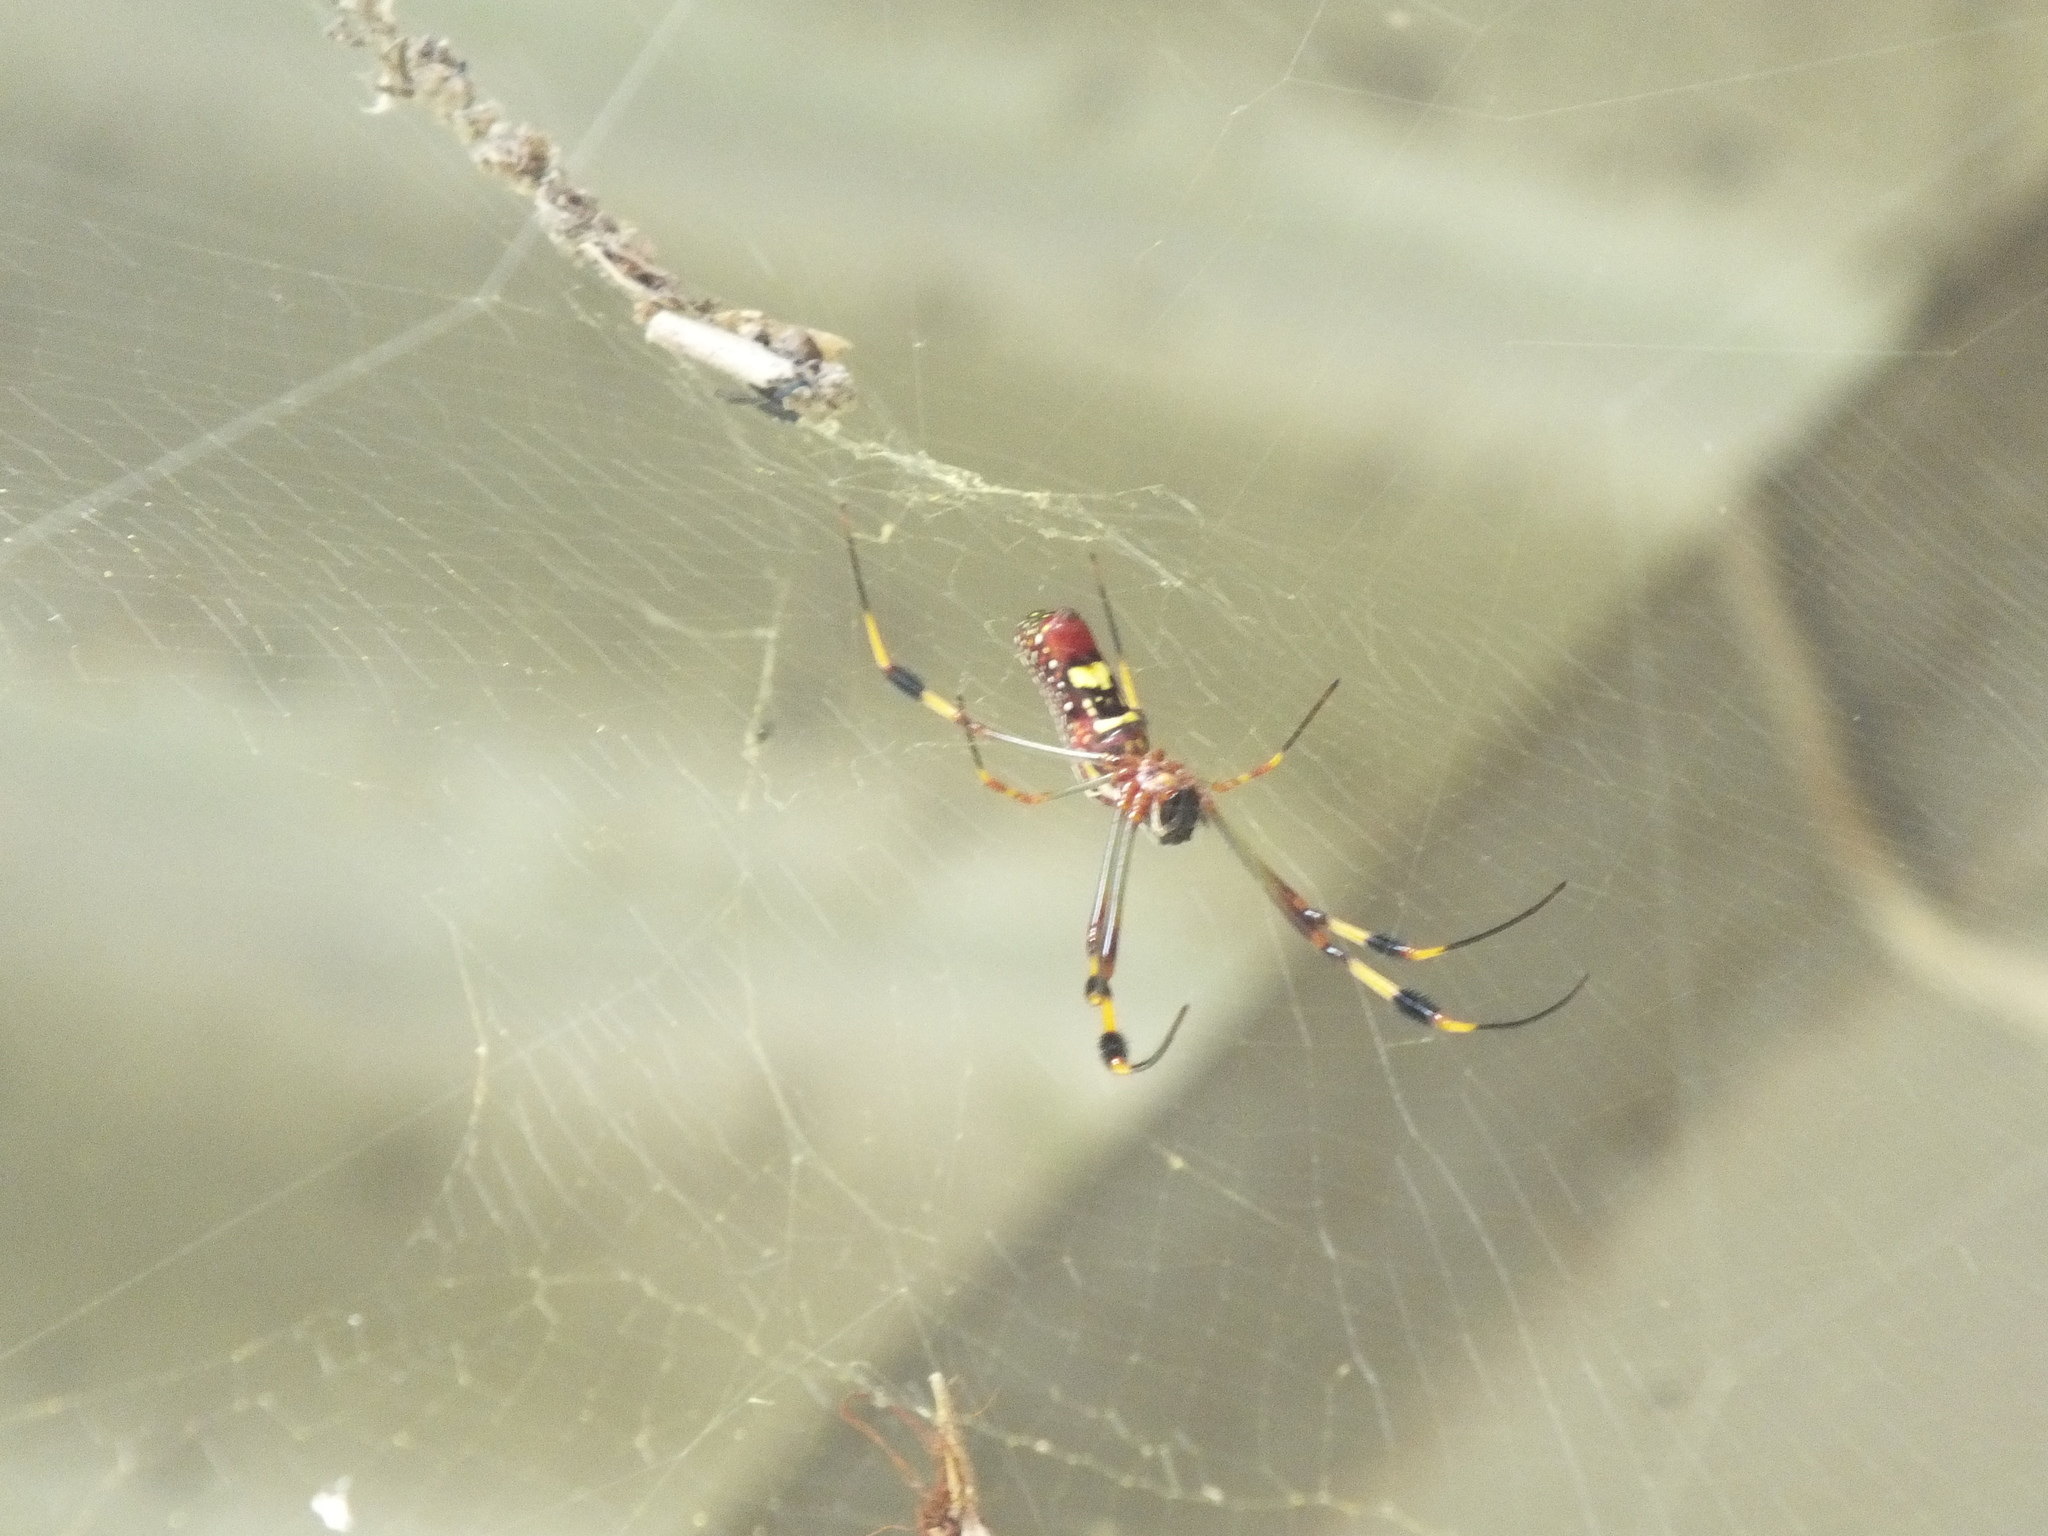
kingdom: Animalia
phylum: Arthropoda
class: Arachnida
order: Araneae
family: Araneidae
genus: Trichonephila
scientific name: Trichonephila clavipes
